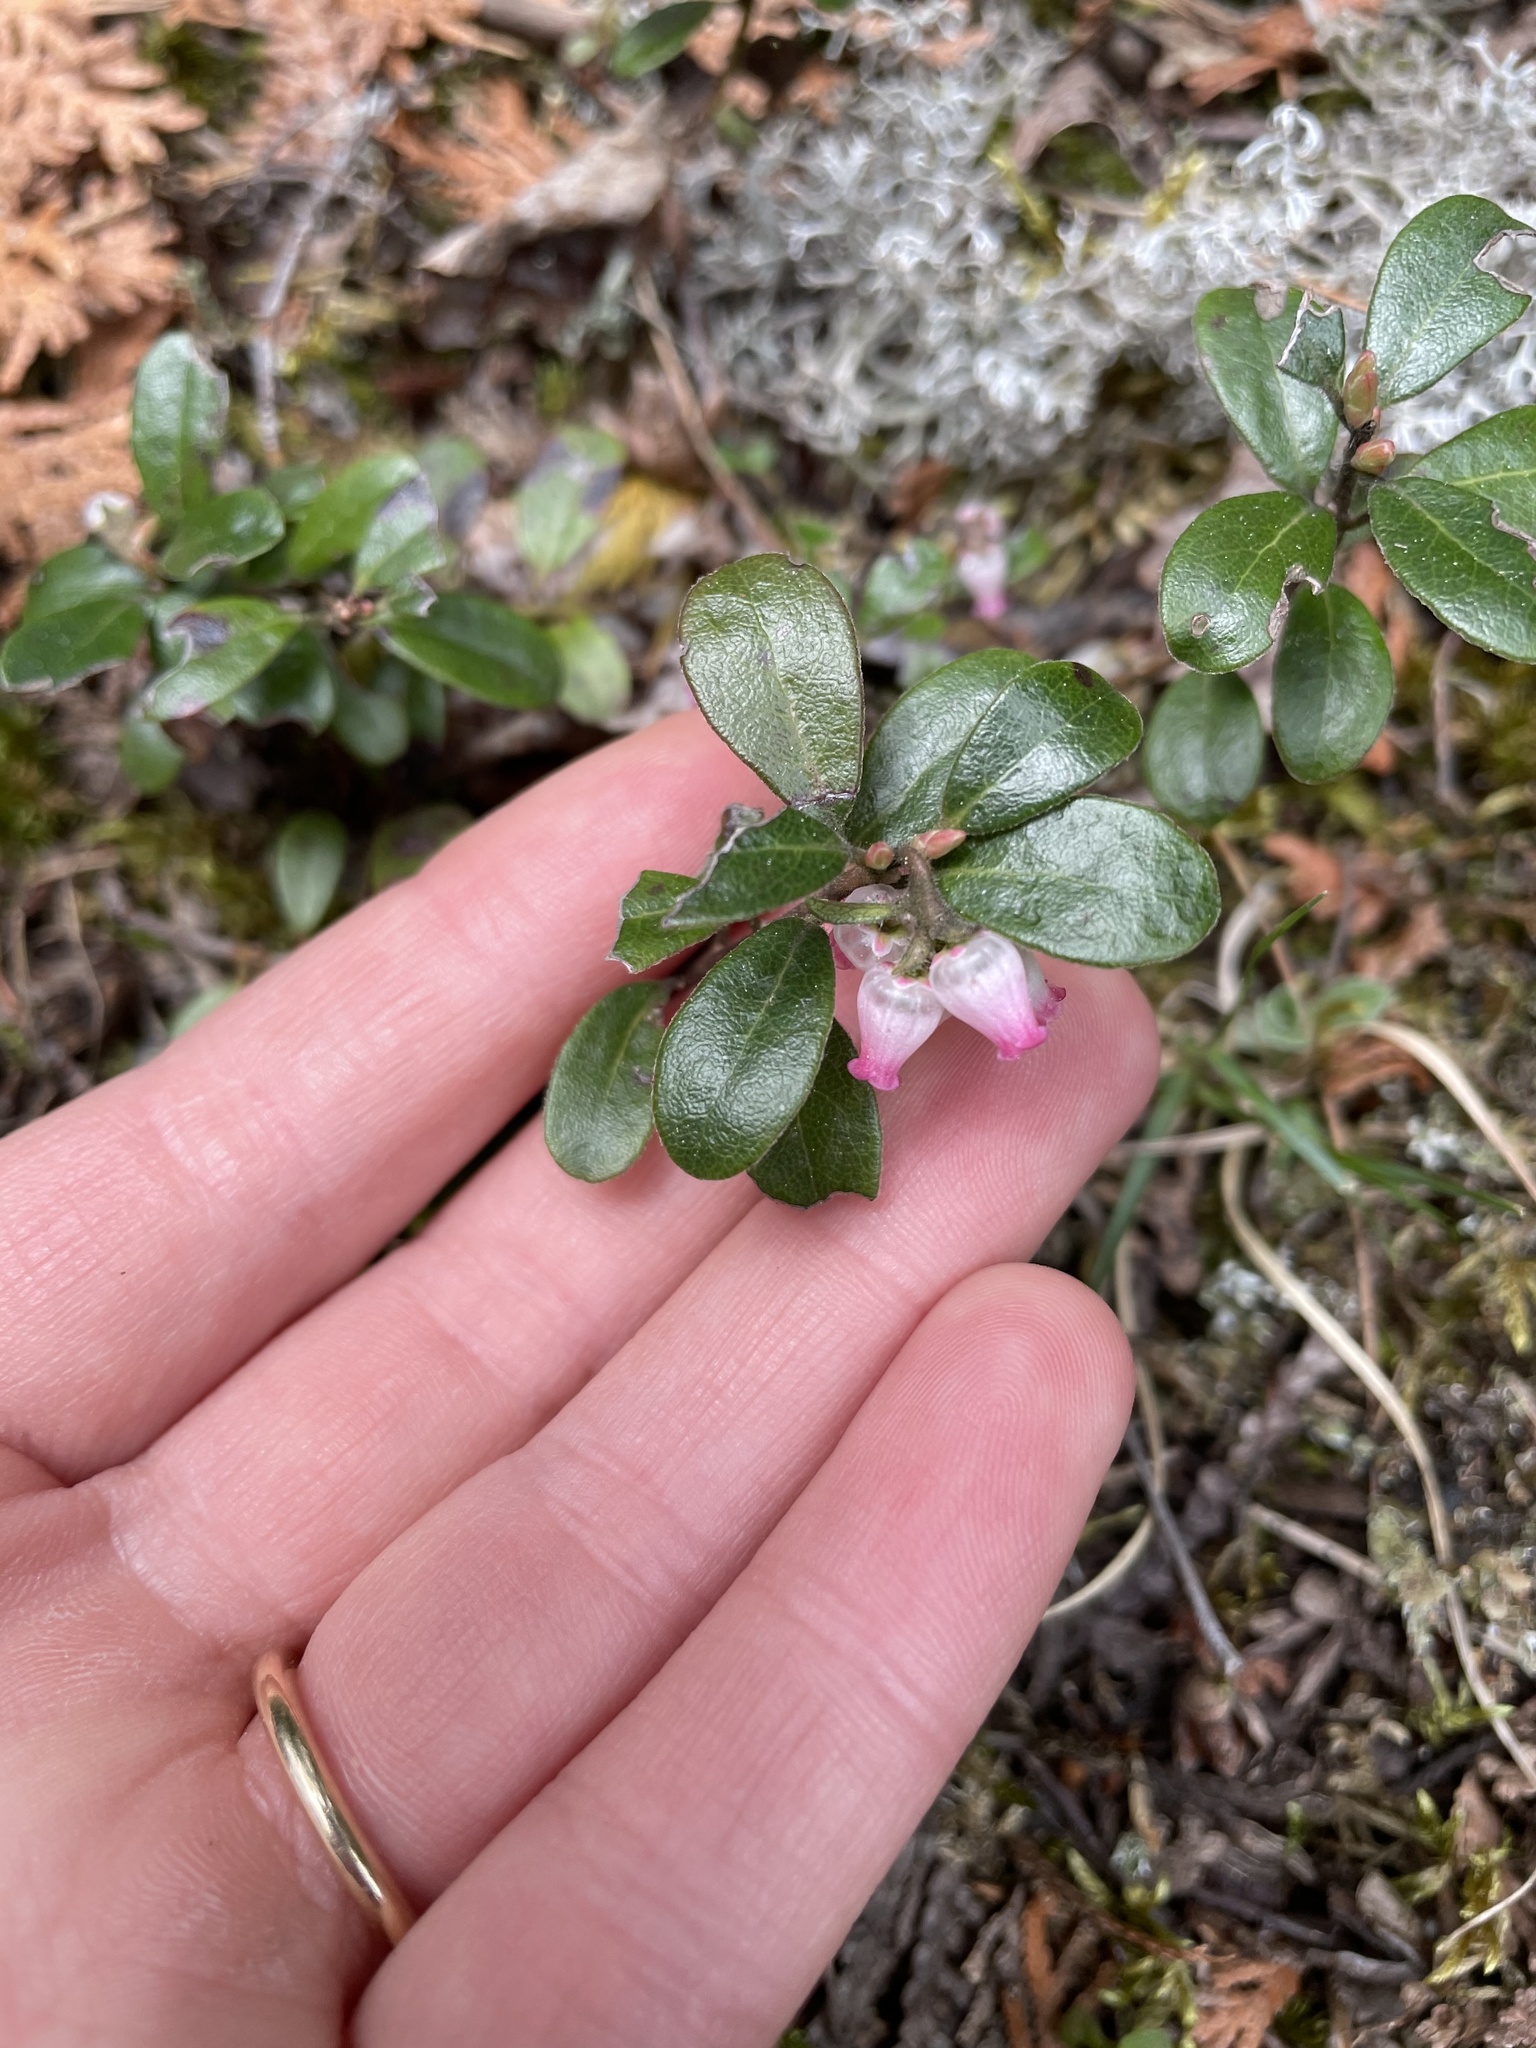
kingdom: Plantae
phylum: Tracheophyta
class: Magnoliopsida
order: Ericales
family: Ericaceae
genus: Arctostaphylos
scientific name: Arctostaphylos uva-ursi
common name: Bearberry
